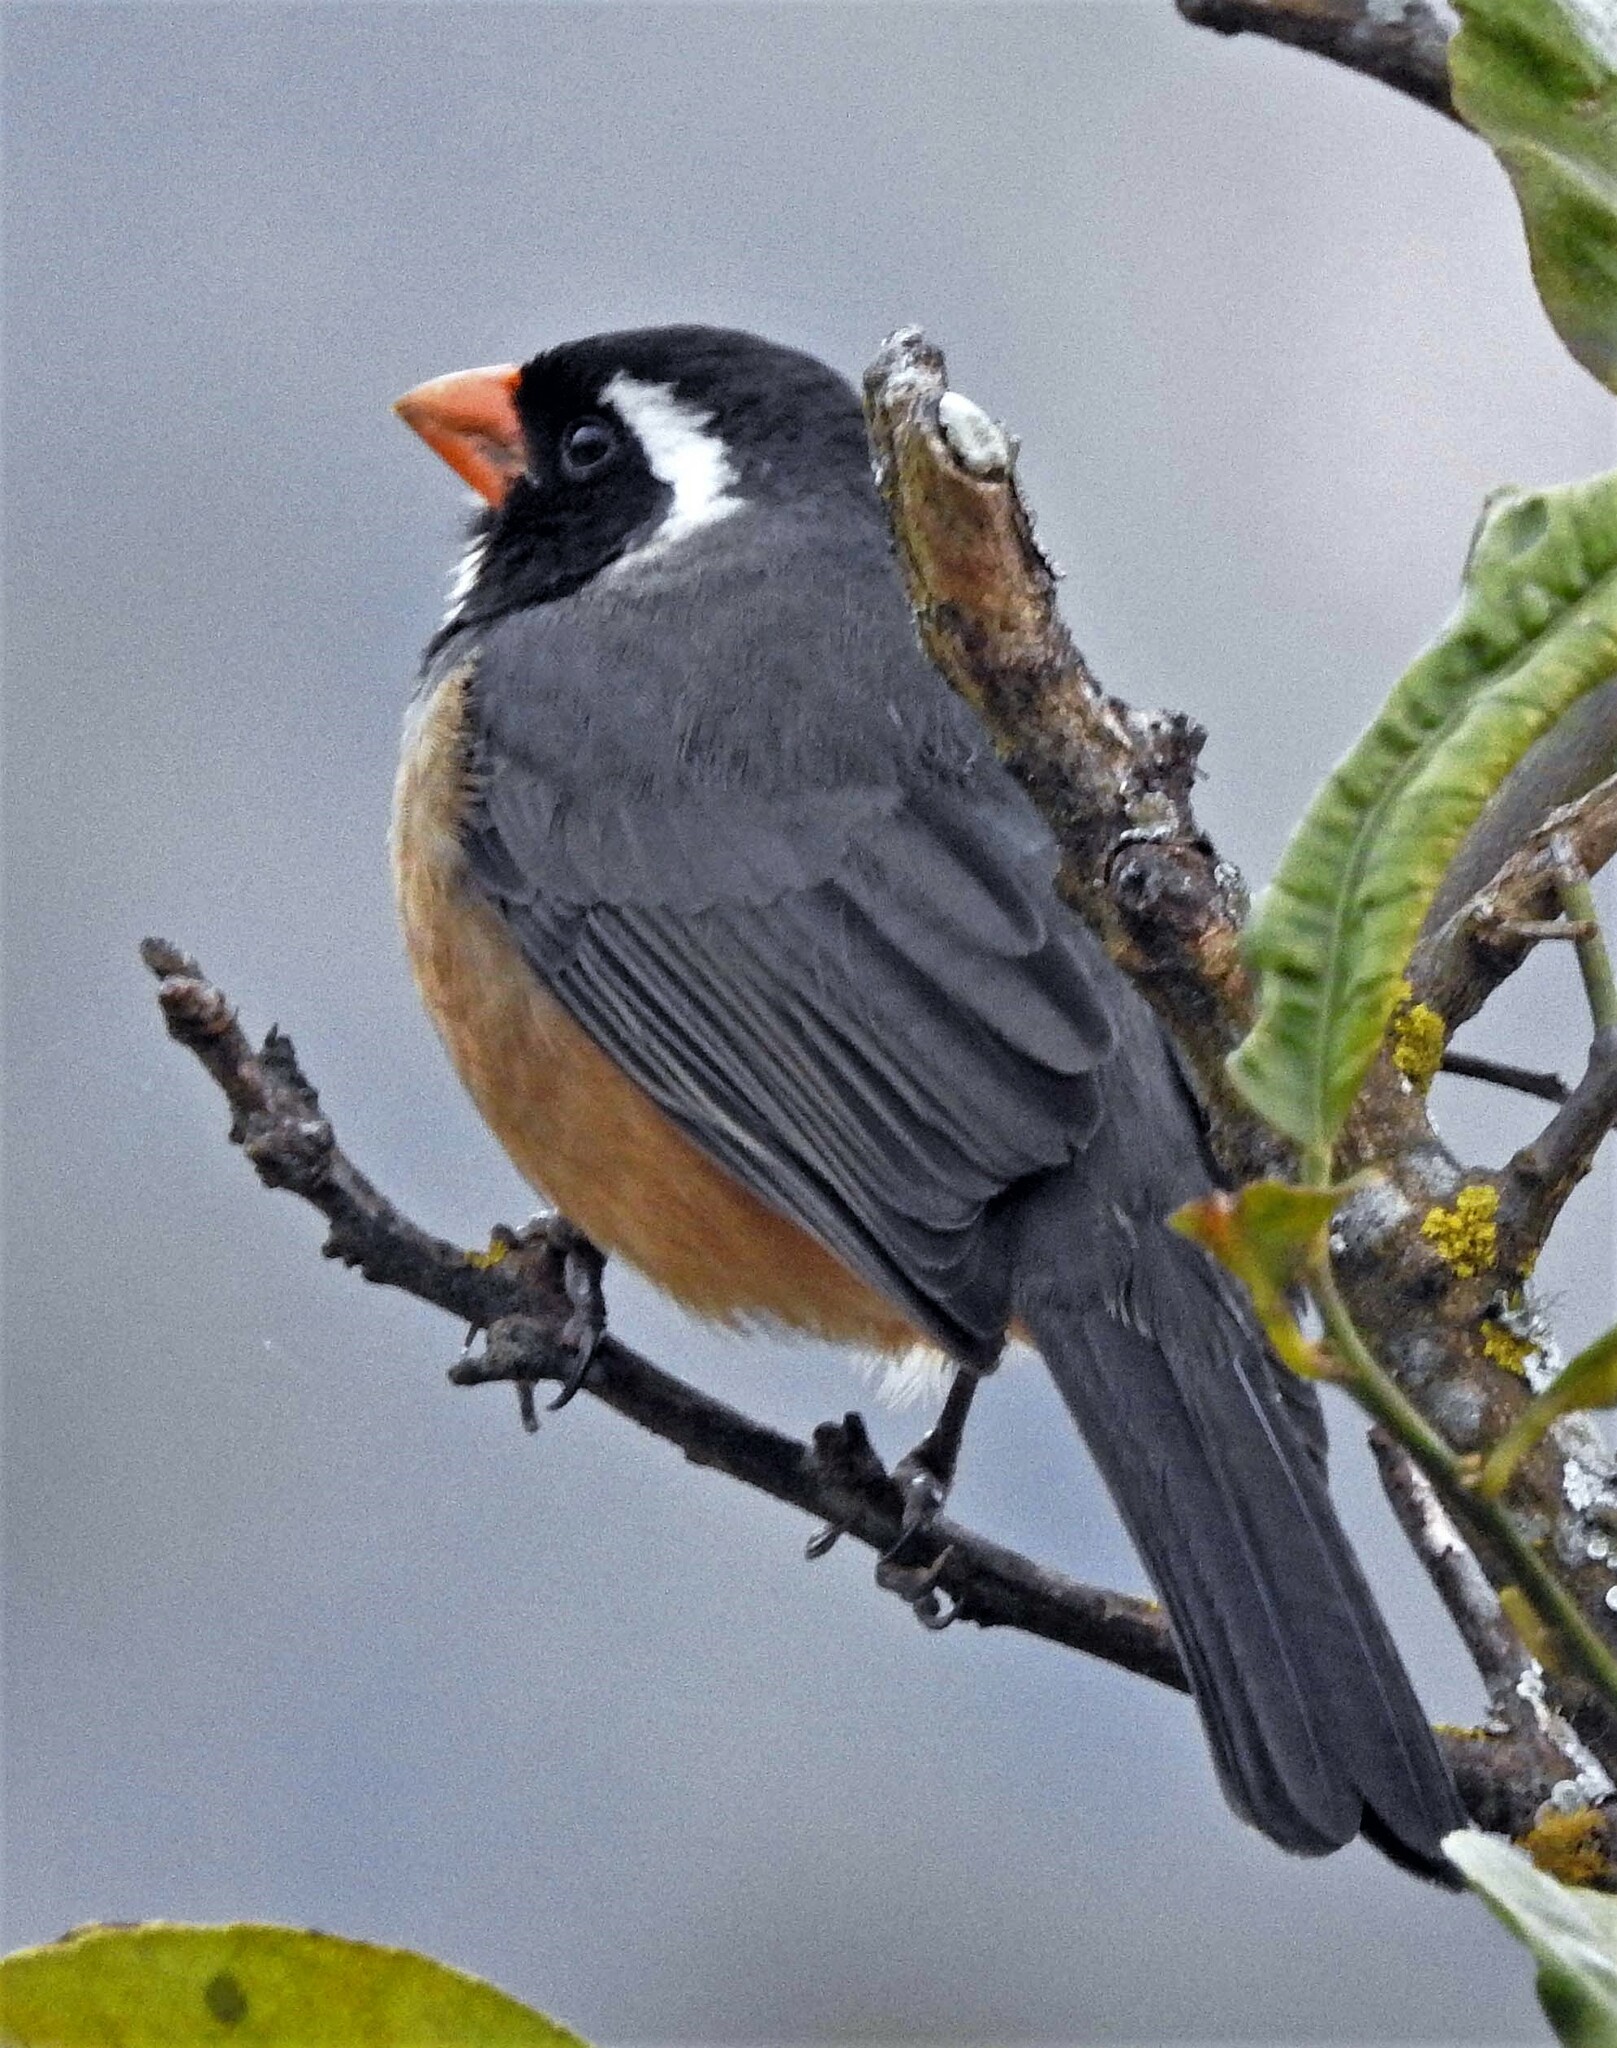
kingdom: Animalia
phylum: Chordata
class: Aves
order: Passeriformes
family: Thraupidae
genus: Saltator
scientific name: Saltator aurantiirostris
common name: Golden-billed saltator
